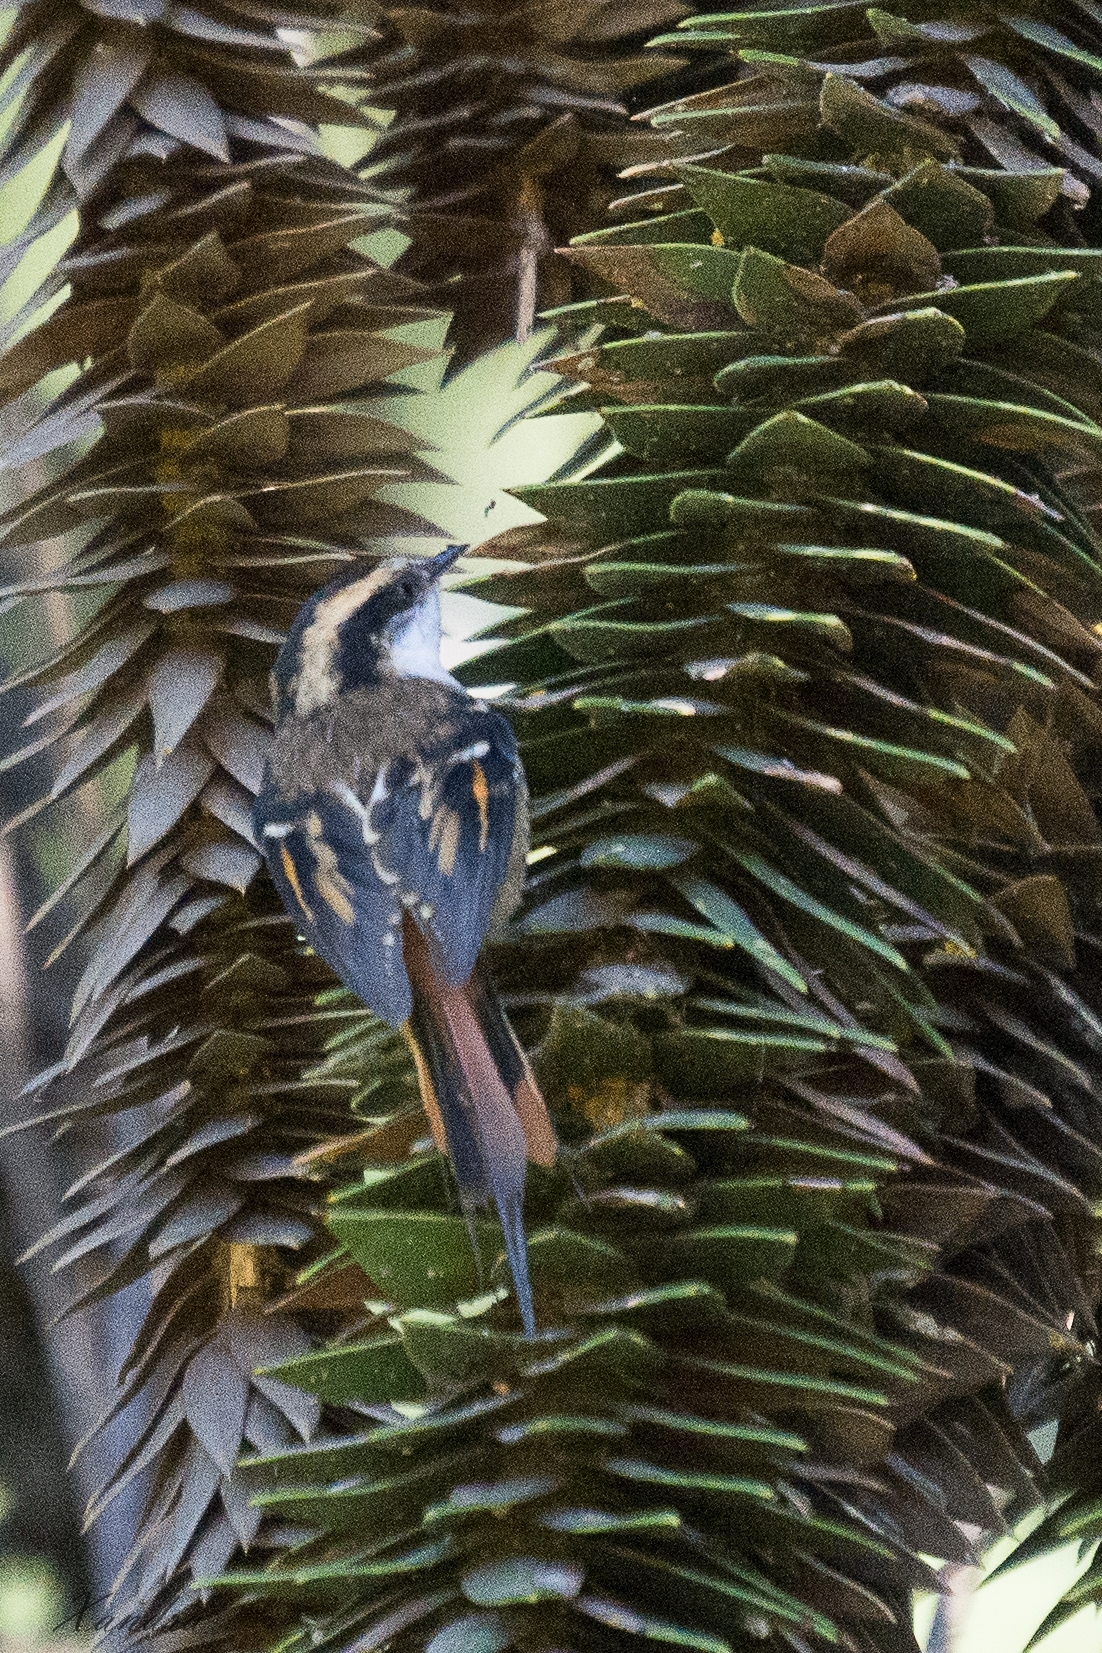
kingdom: Animalia
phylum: Chordata
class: Aves
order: Passeriformes
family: Furnariidae
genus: Aphrastura
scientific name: Aphrastura spinicauda
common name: Thorn-tailed rayadito
